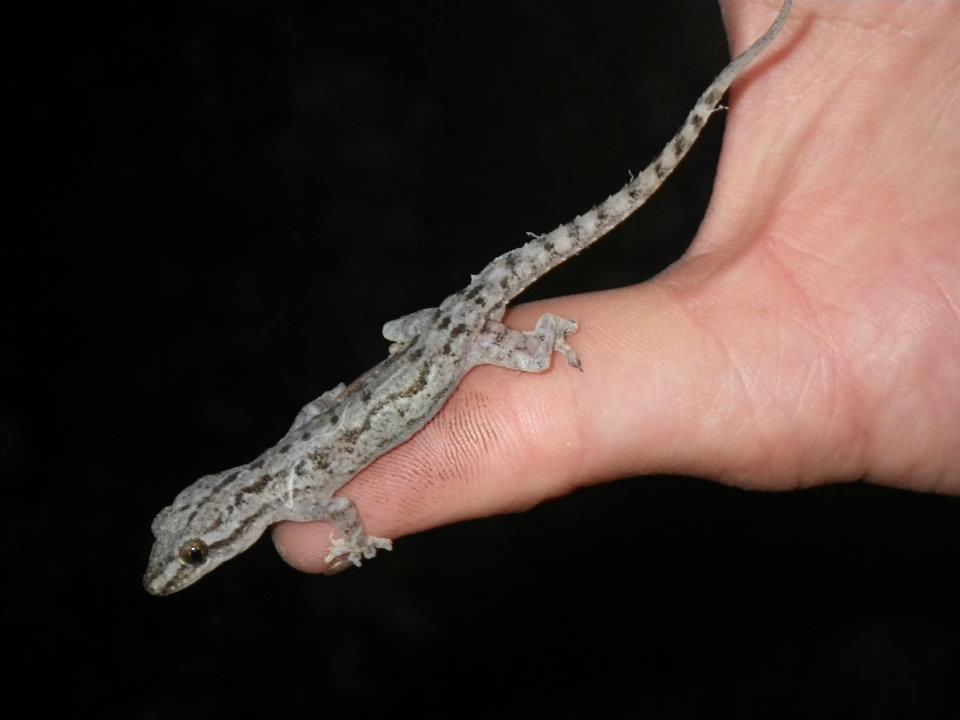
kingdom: Animalia
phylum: Chordata
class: Squamata
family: Gekkonidae
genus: Hemidactylus
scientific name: Hemidactylus frenatus
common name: Common house gecko
